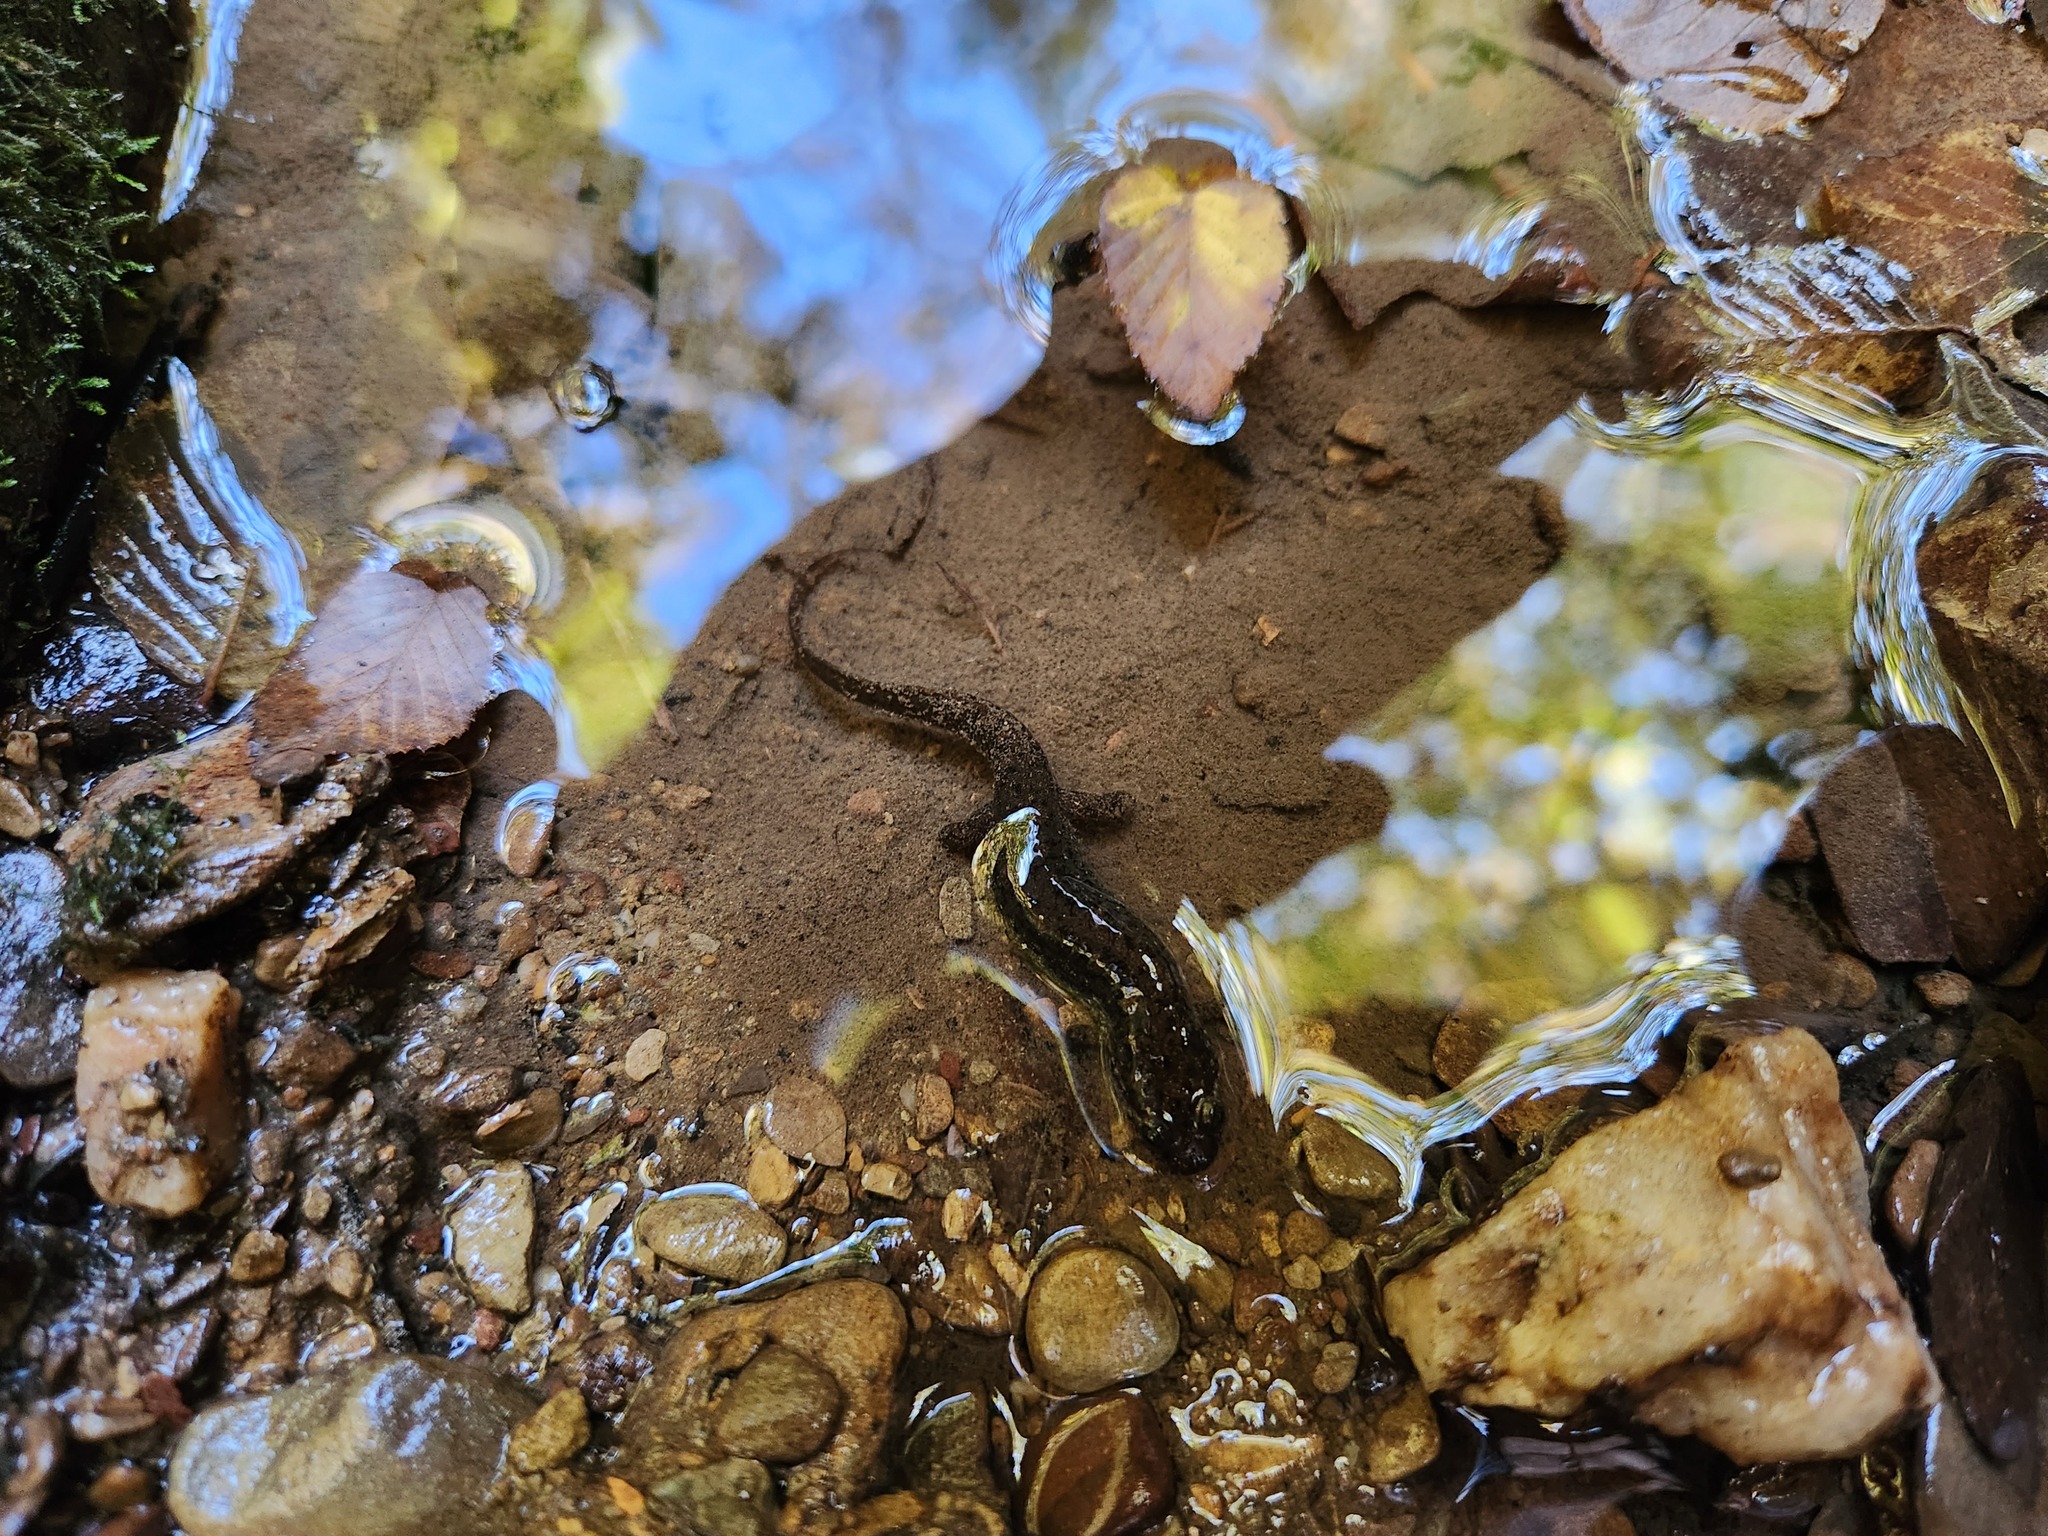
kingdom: Animalia
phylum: Chordata
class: Amphibia
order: Caudata
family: Plethodontidae
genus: Desmognathus
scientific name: Desmognathus monticola
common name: Seal salamander
